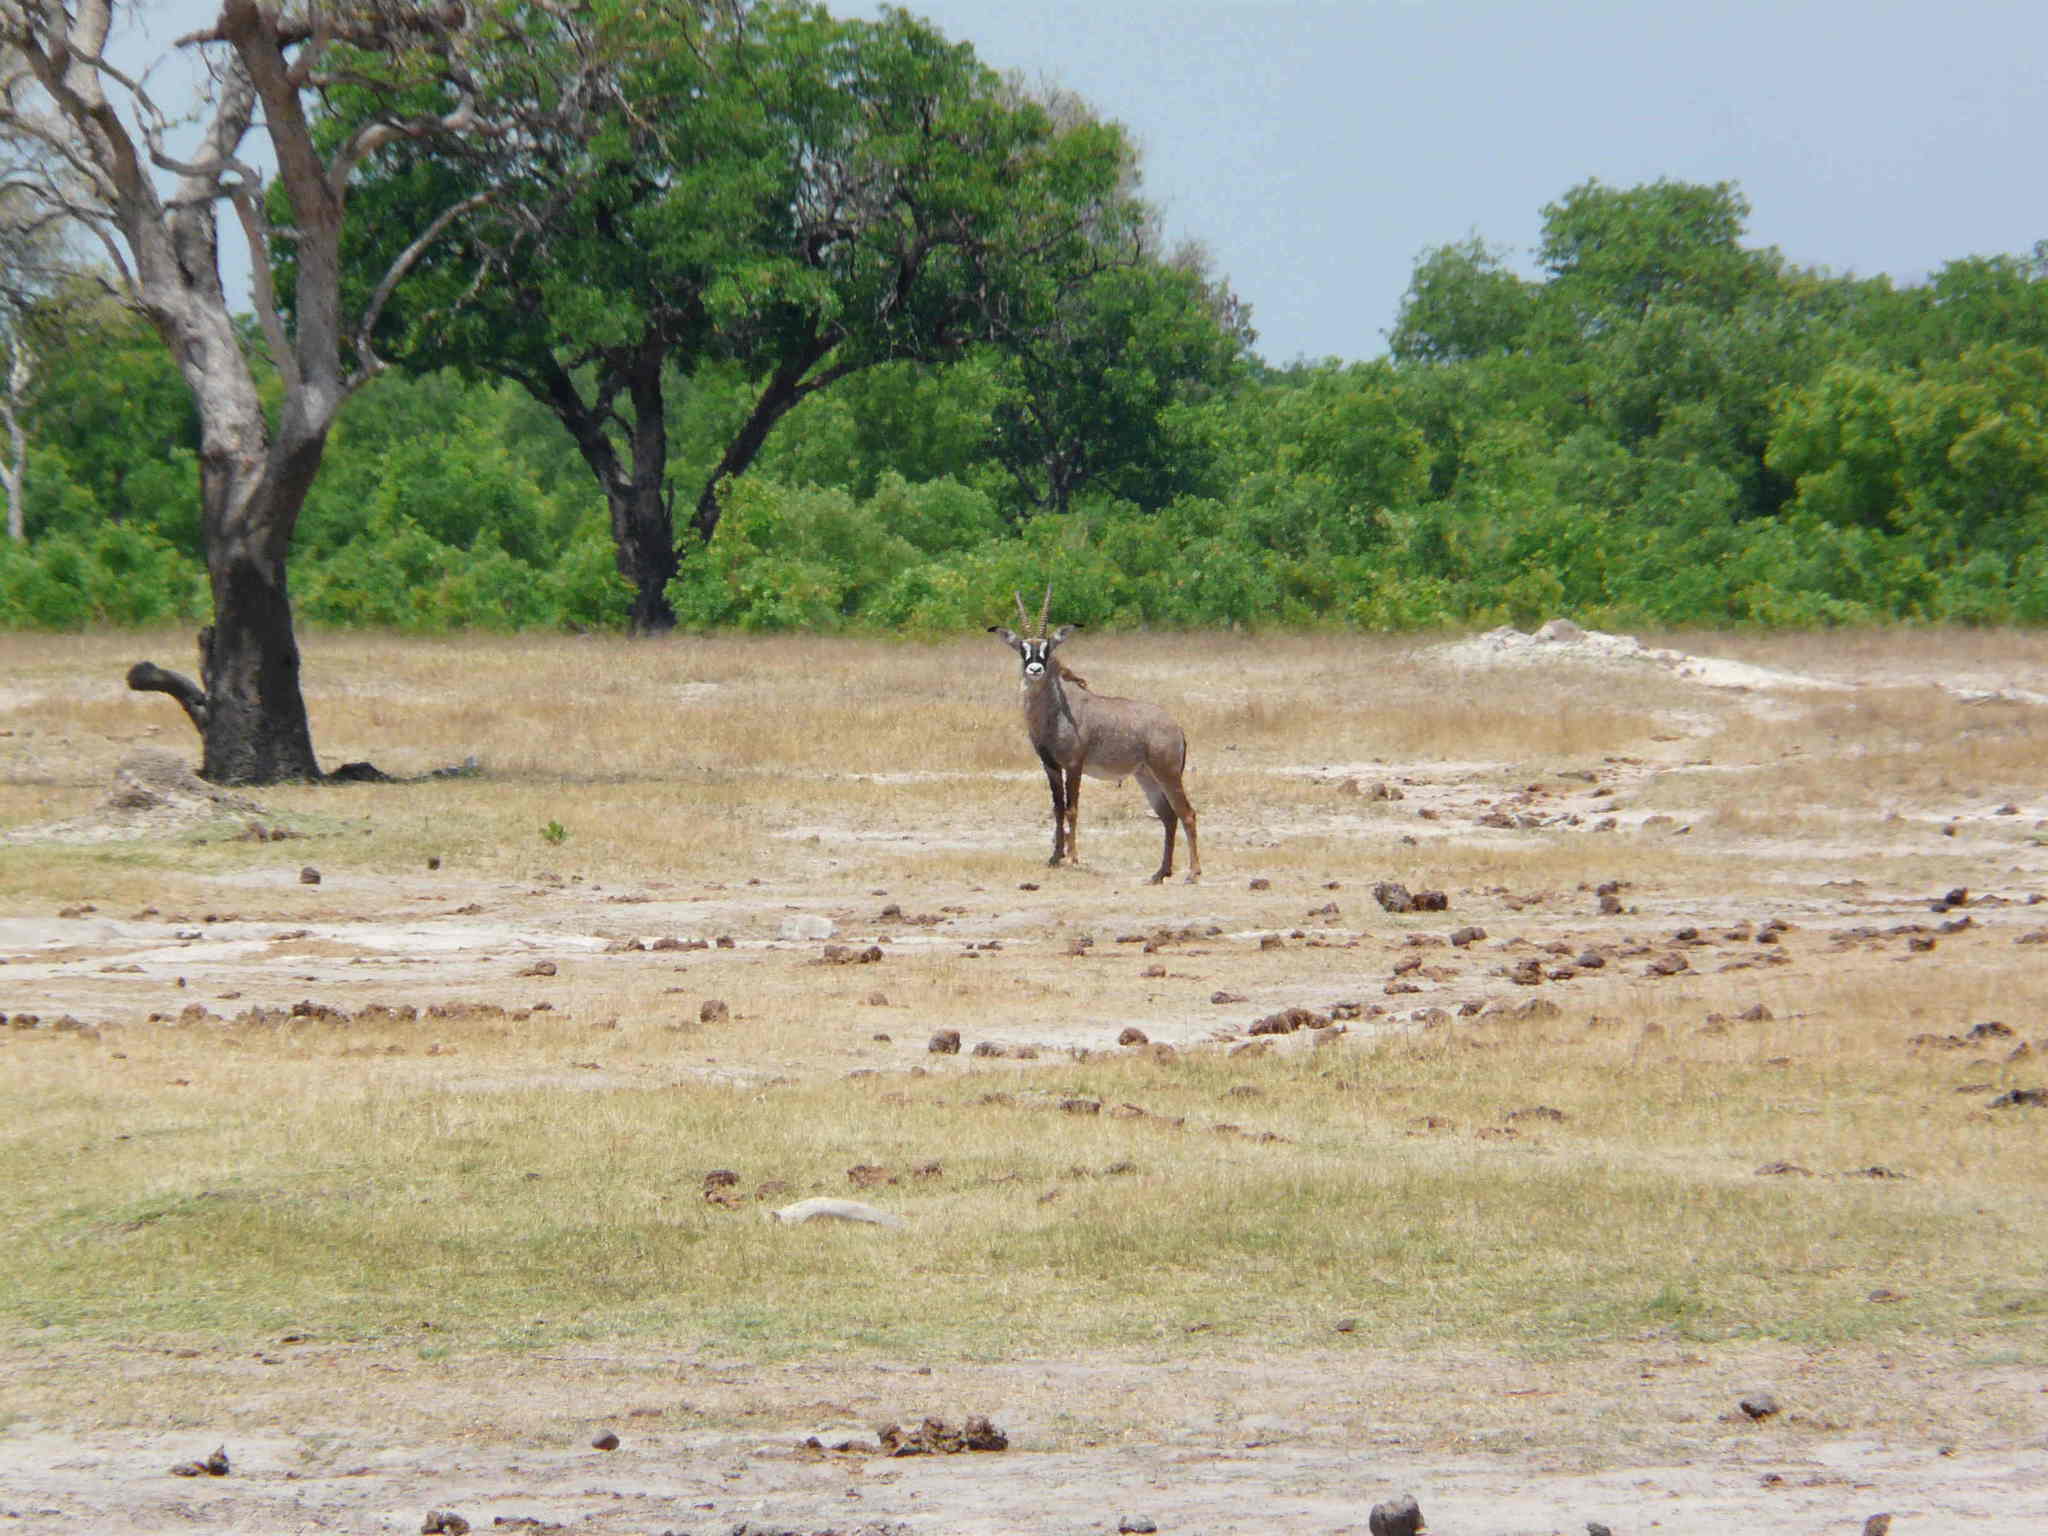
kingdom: Animalia
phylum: Chordata
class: Mammalia
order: Artiodactyla
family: Bovidae
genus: Hippotragus
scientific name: Hippotragus equinus
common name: Roan antelope
